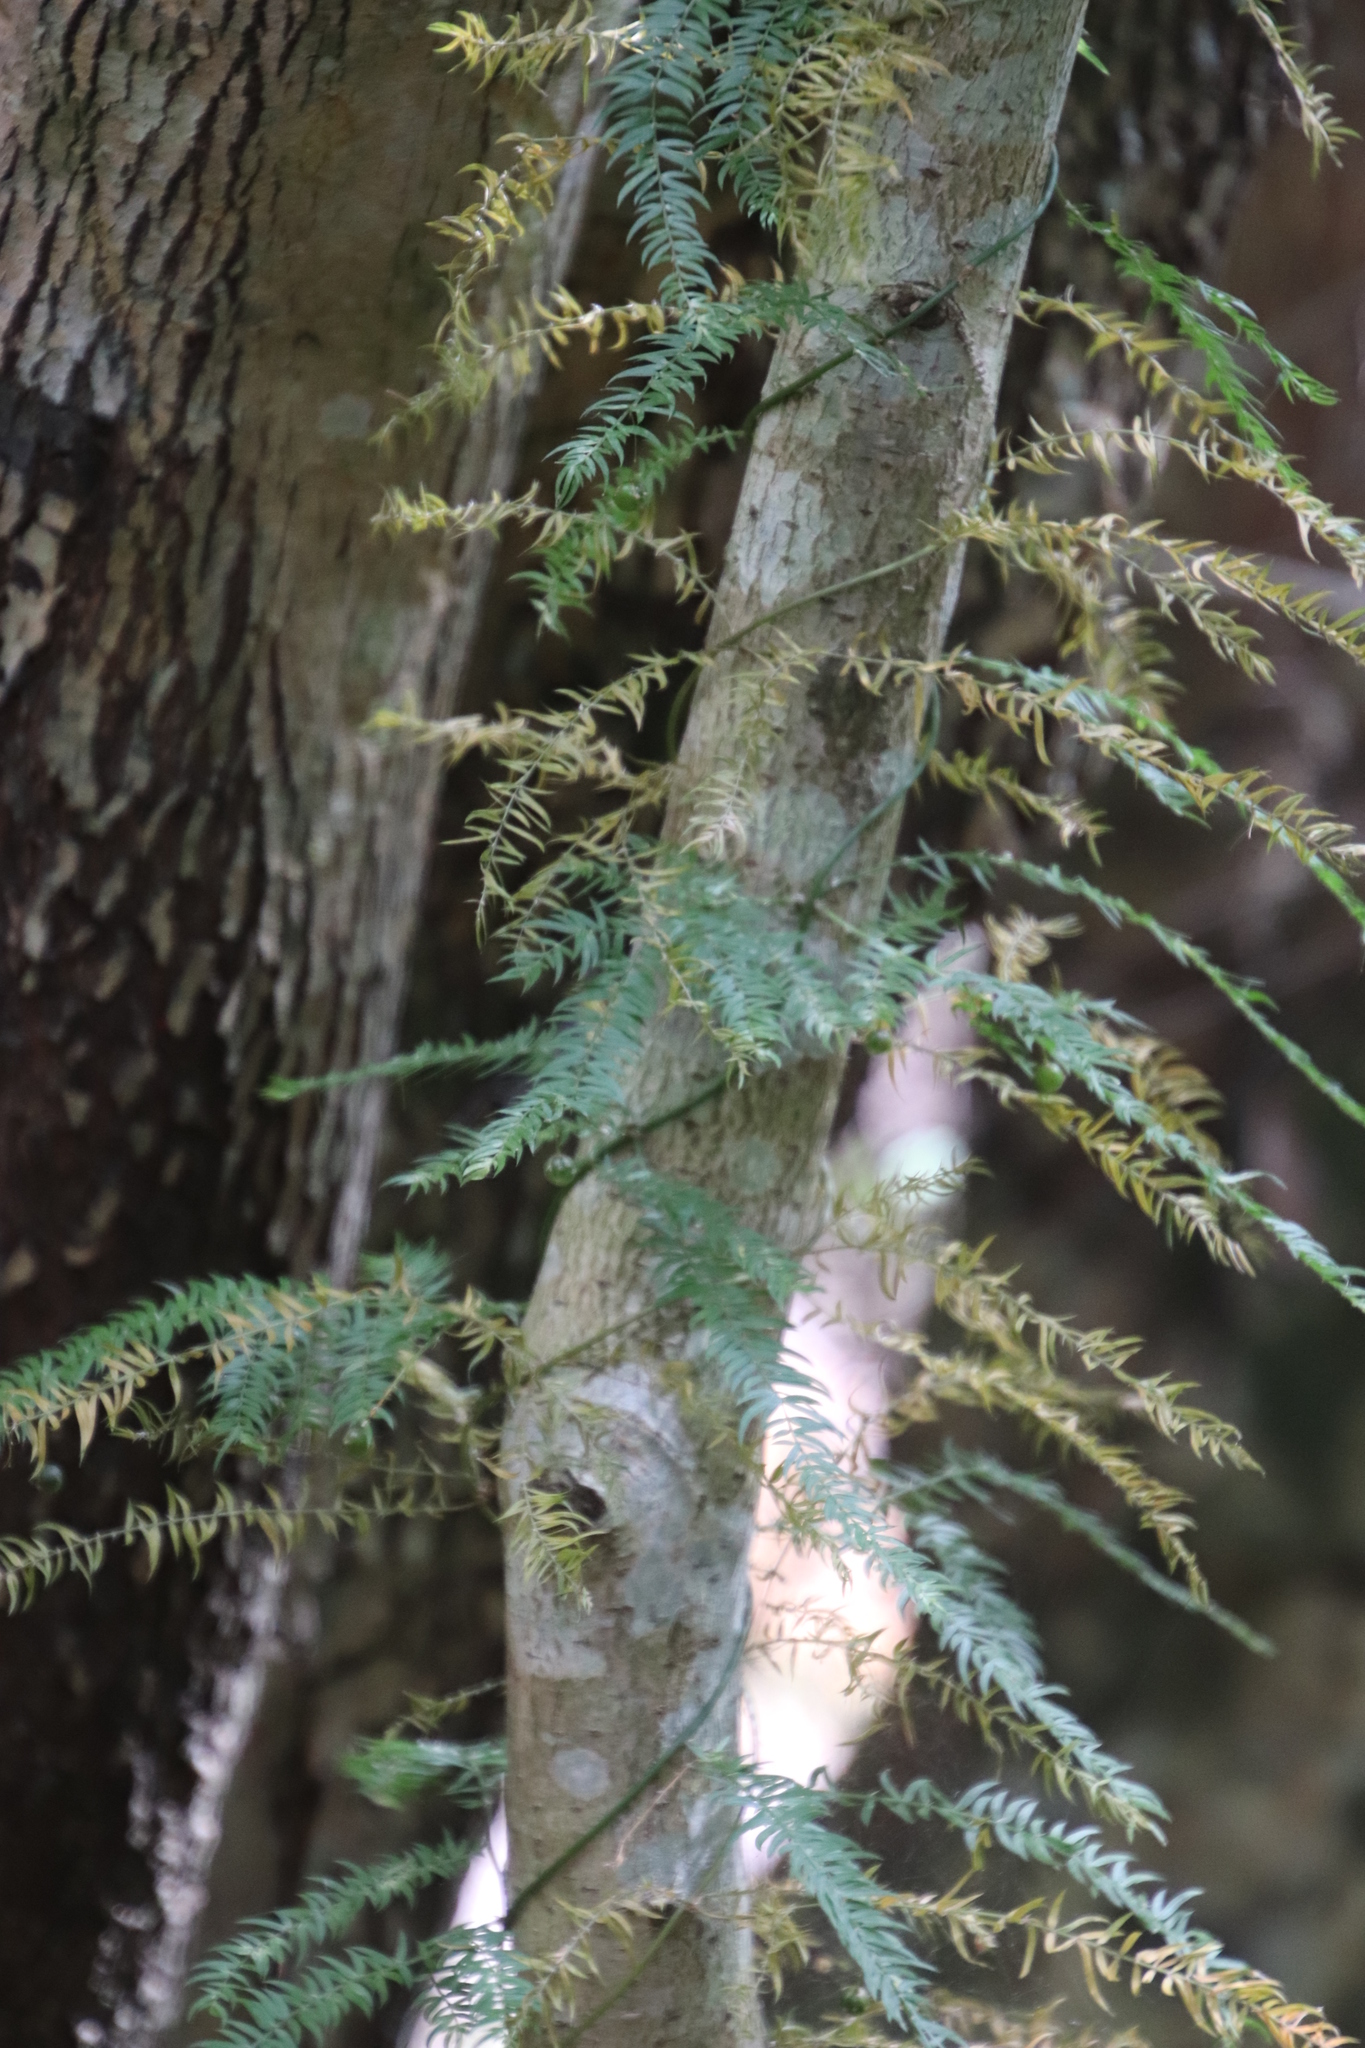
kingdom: Plantae
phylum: Tracheophyta
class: Liliopsida
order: Asparagales
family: Asparagaceae
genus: Asparagus
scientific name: Asparagus scandens
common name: Asparagus-fern
